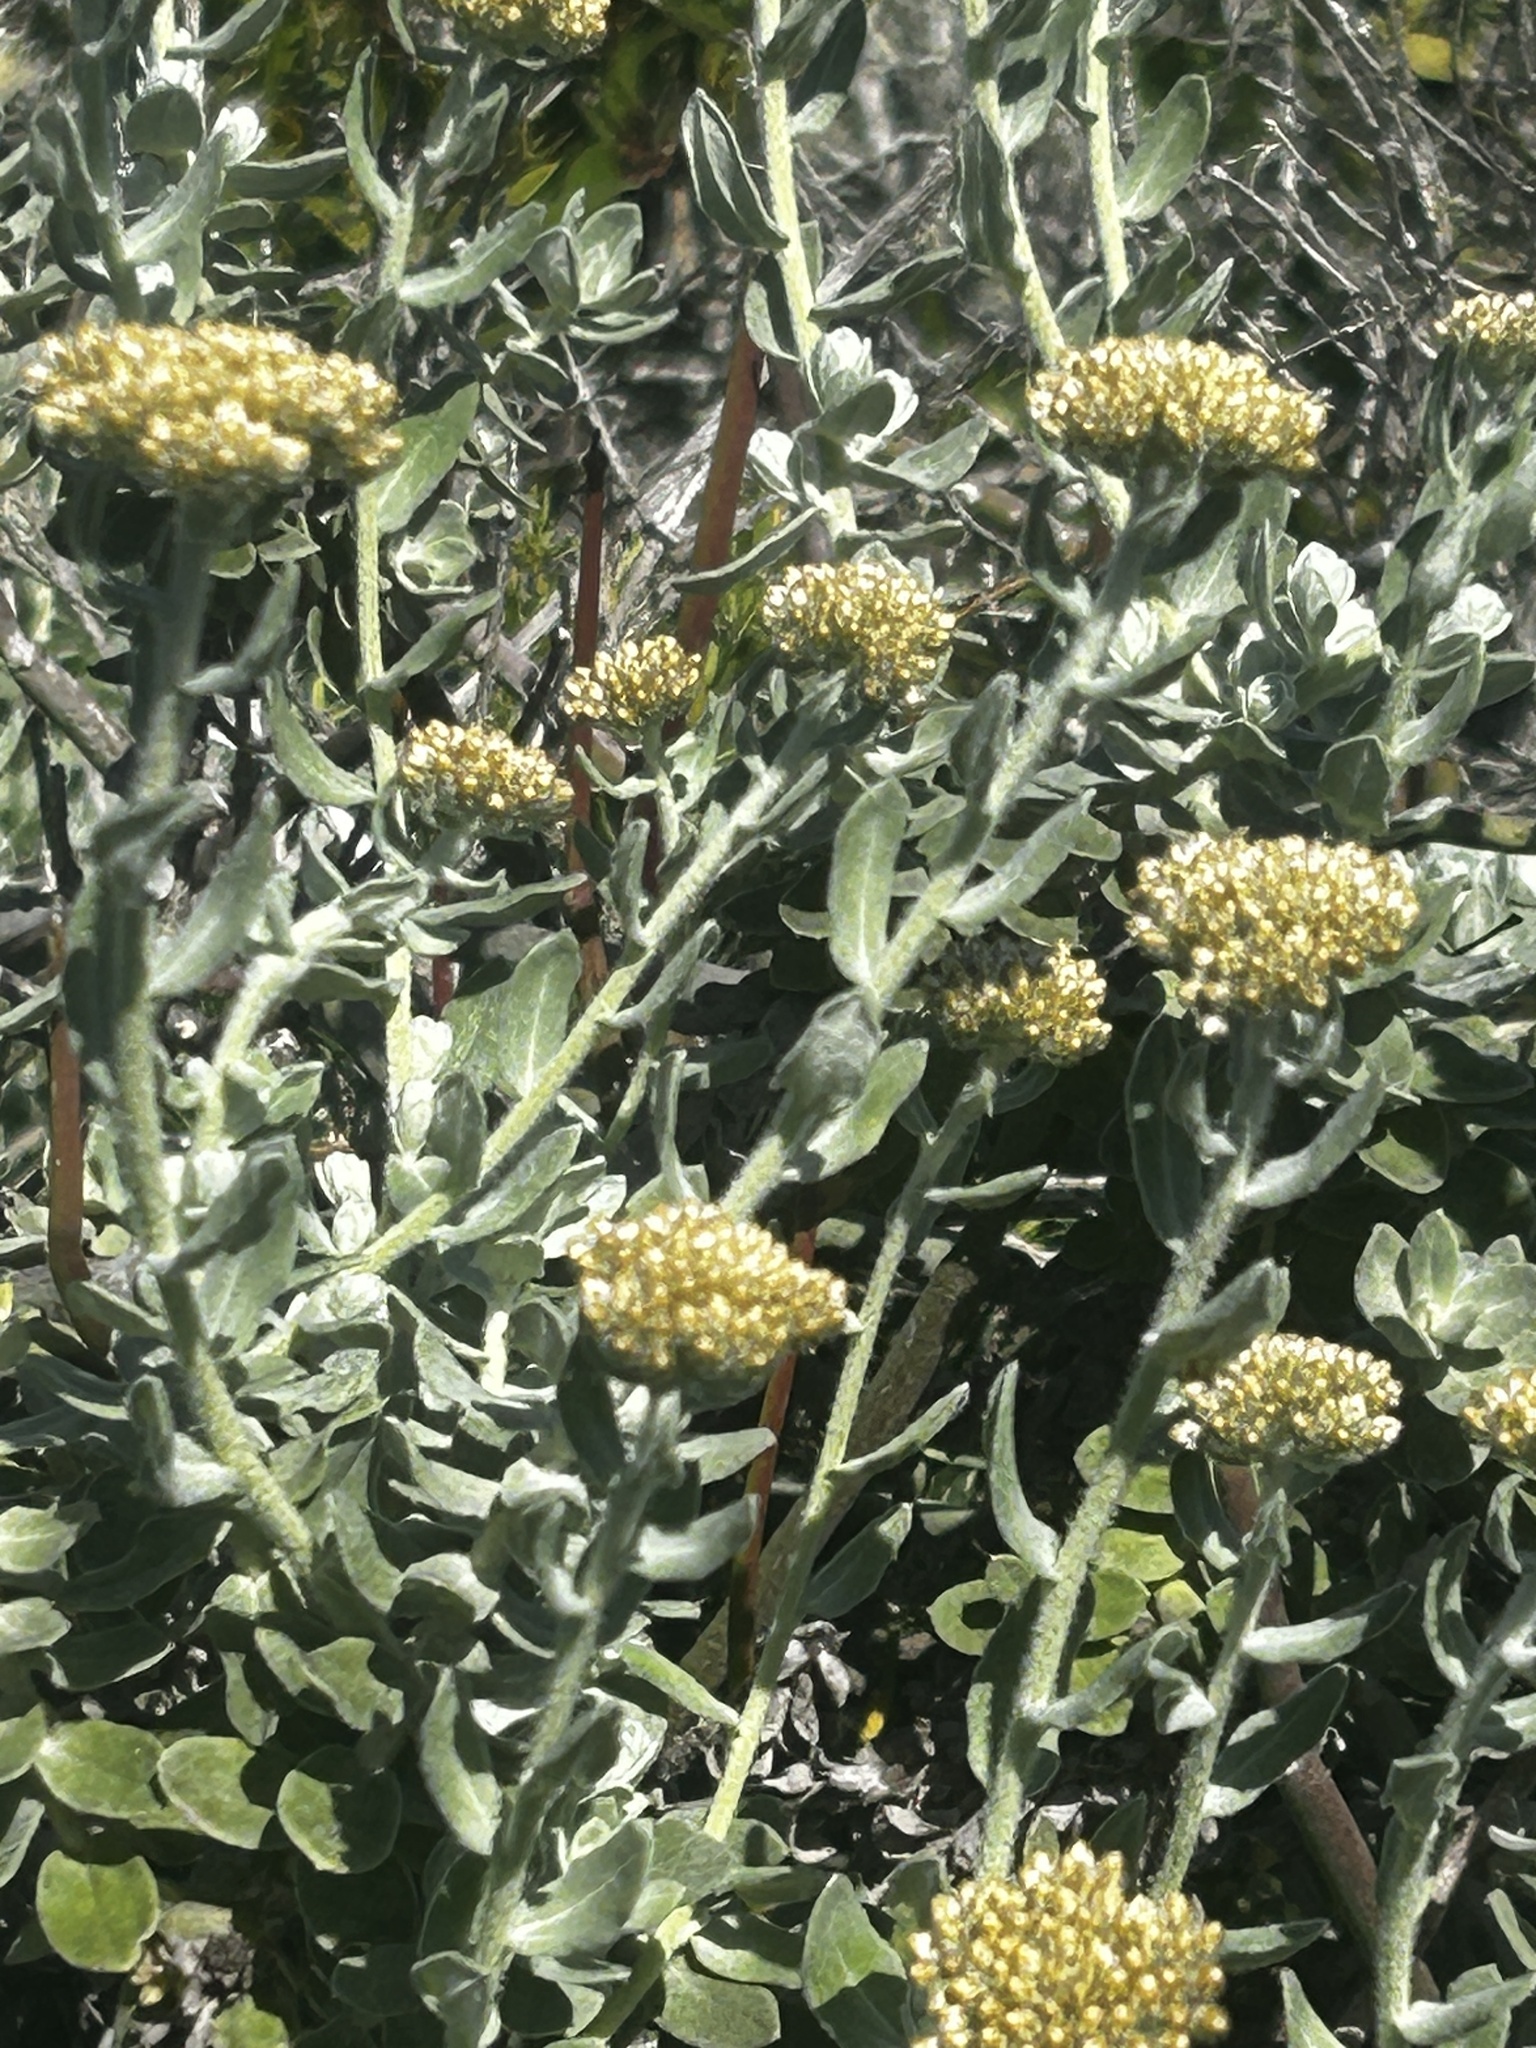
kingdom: Plantae
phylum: Tracheophyta
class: Magnoliopsida
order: Asterales
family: Asteraceae
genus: Helichrysum
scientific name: Helichrysum dasyanthum
